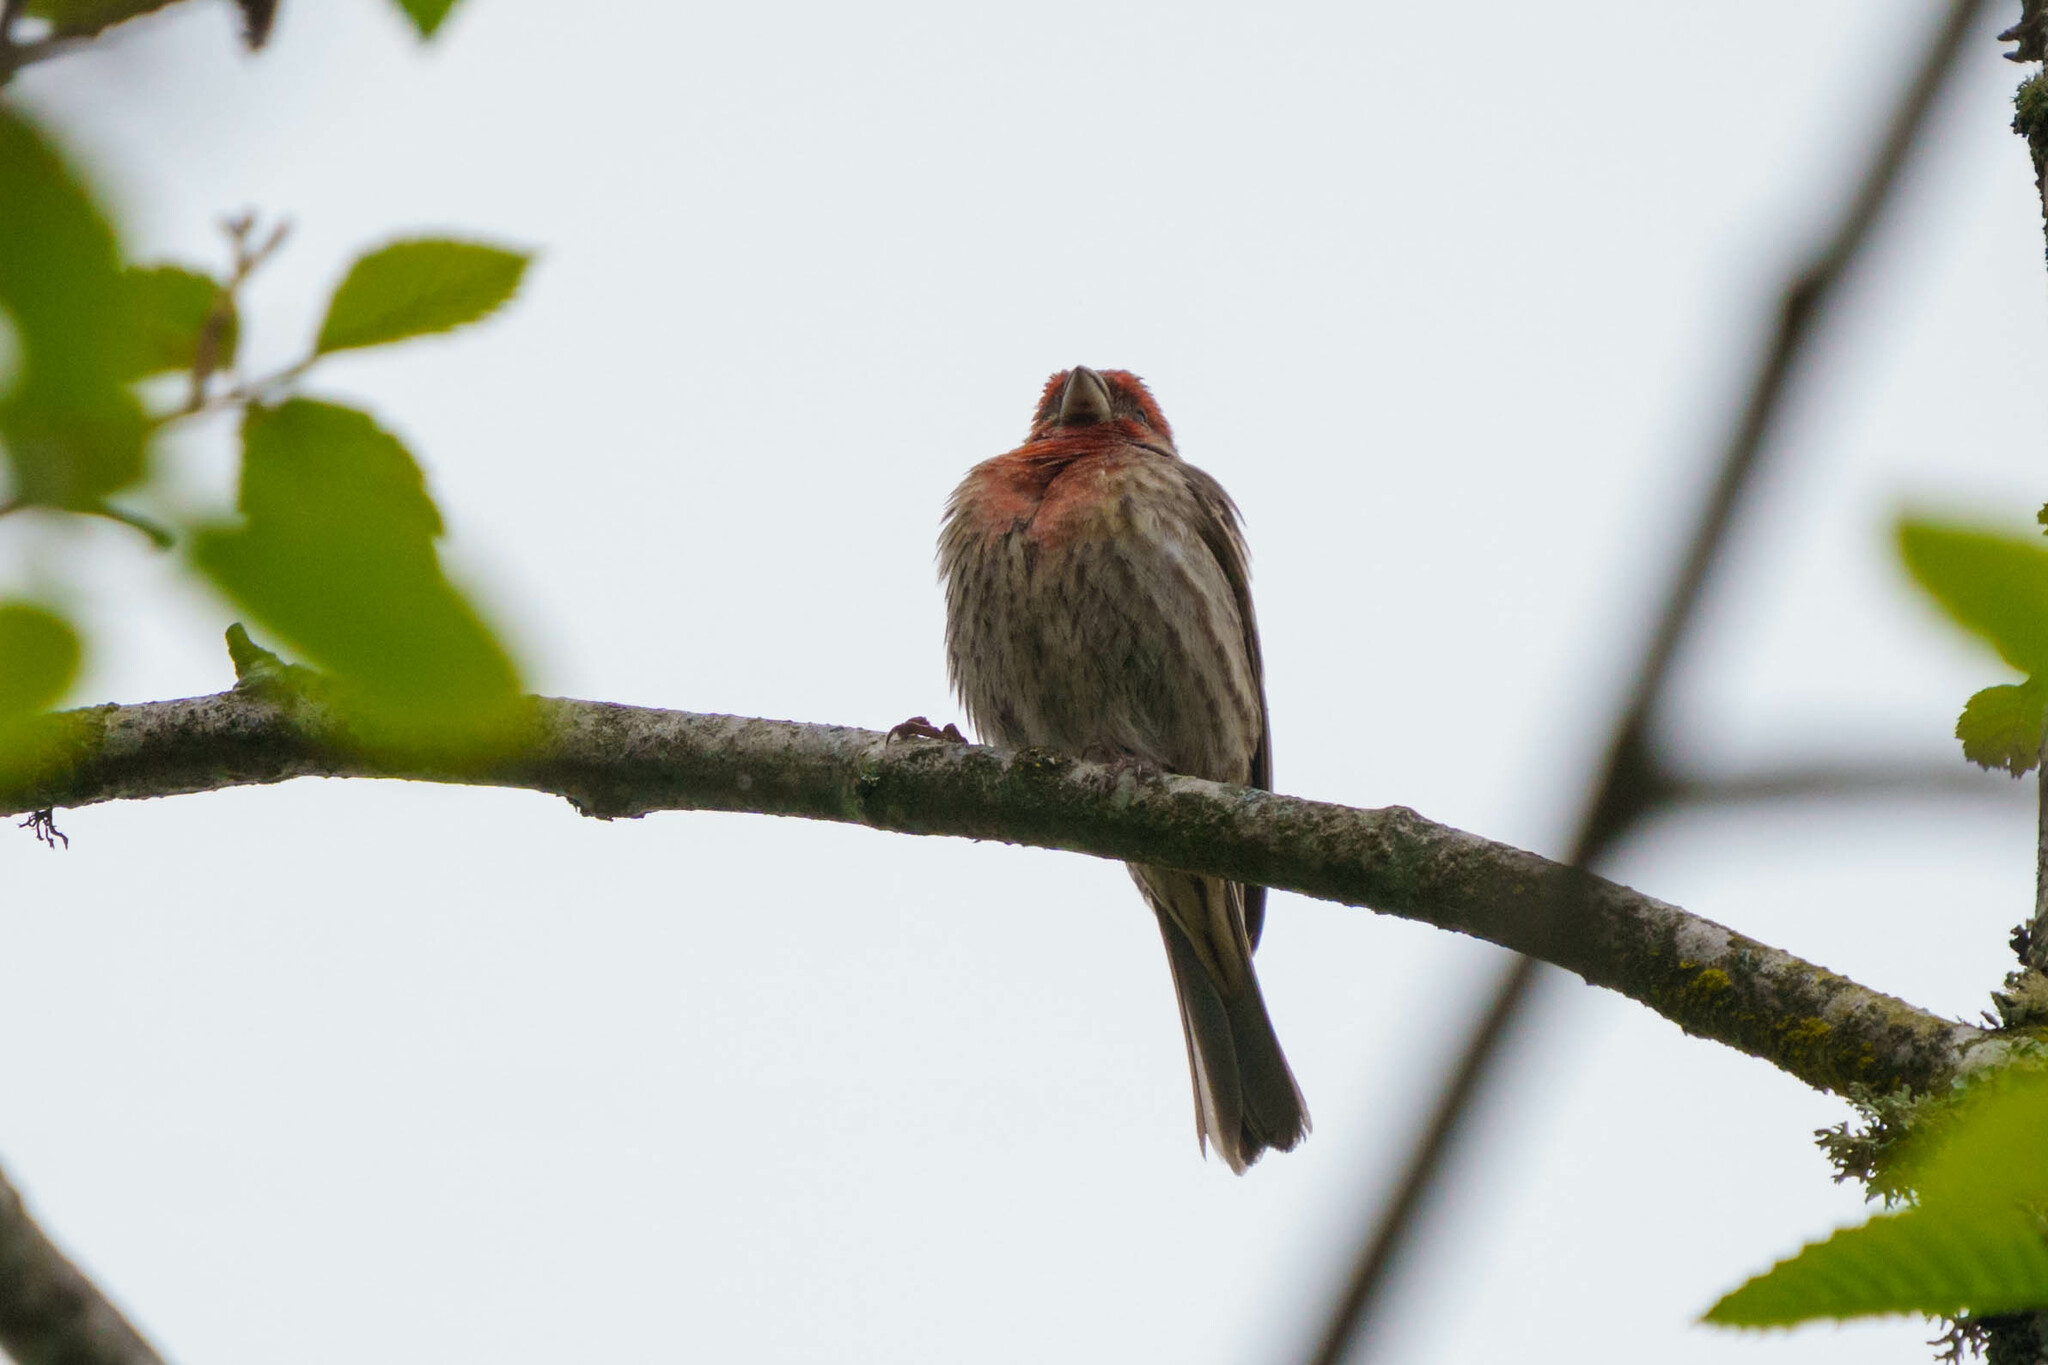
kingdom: Animalia
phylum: Chordata
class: Aves
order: Passeriformes
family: Fringillidae
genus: Haemorhous
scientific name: Haemorhous mexicanus
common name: House finch
